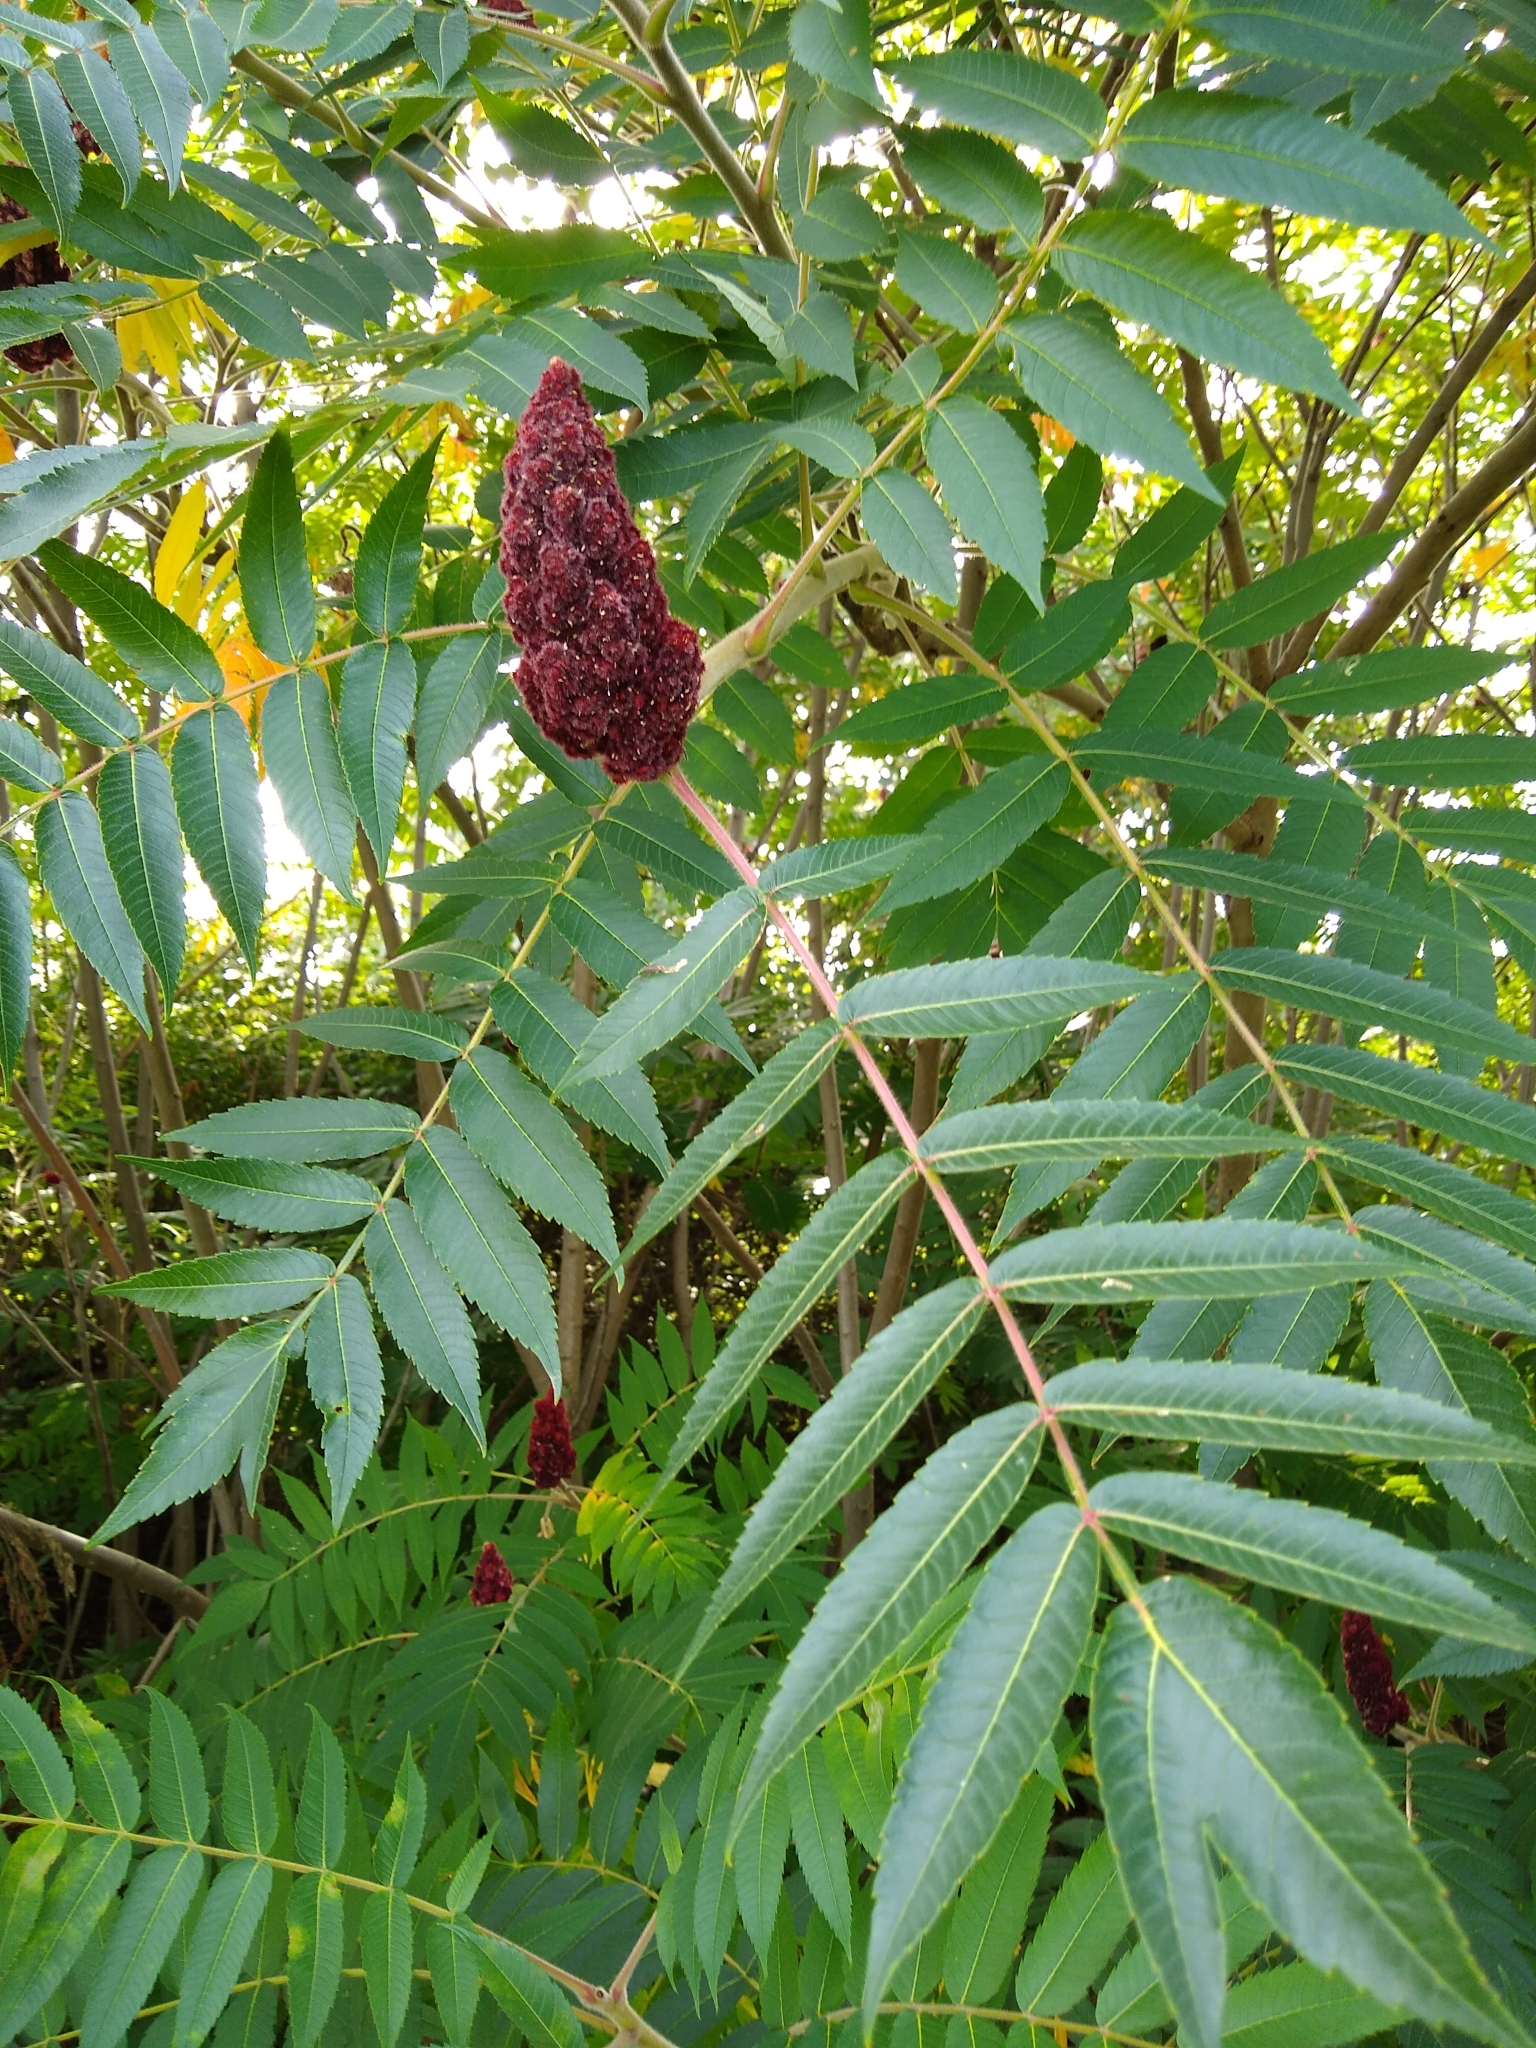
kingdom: Plantae
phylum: Tracheophyta
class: Magnoliopsida
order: Sapindales
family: Anacardiaceae
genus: Rhus
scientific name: Rhus typhina
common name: Staghorn sumac
